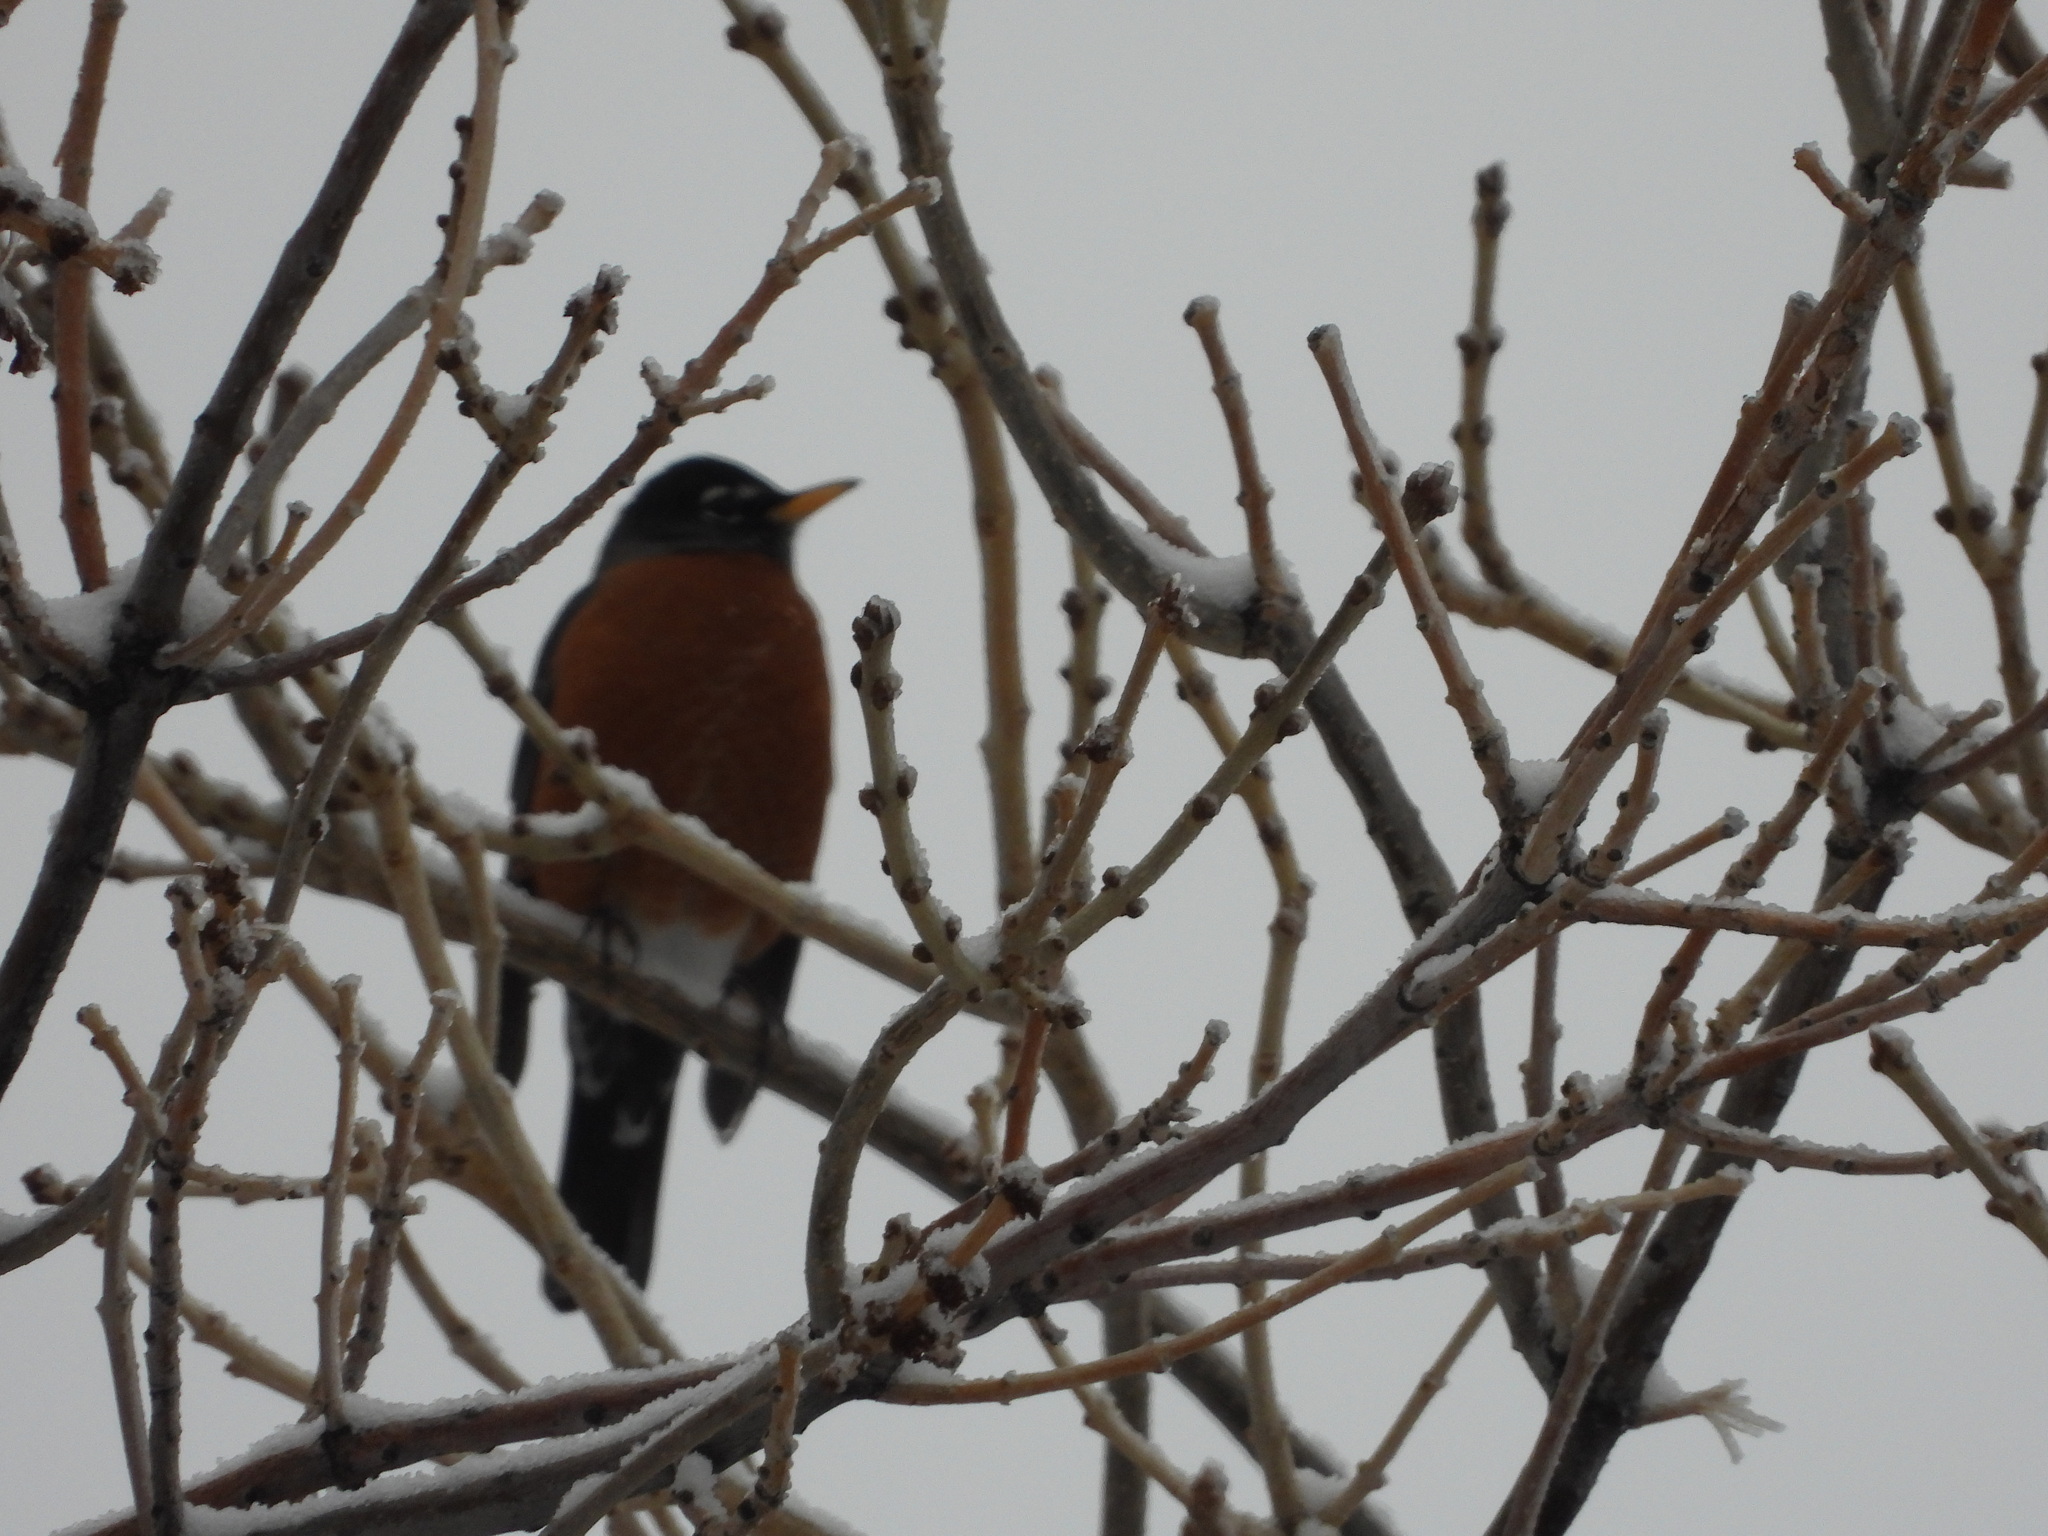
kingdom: Animalia
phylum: Chordata
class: Aves
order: Passeriformes
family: Turdidae
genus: Turdus
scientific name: Turdus migratorius
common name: American robin
